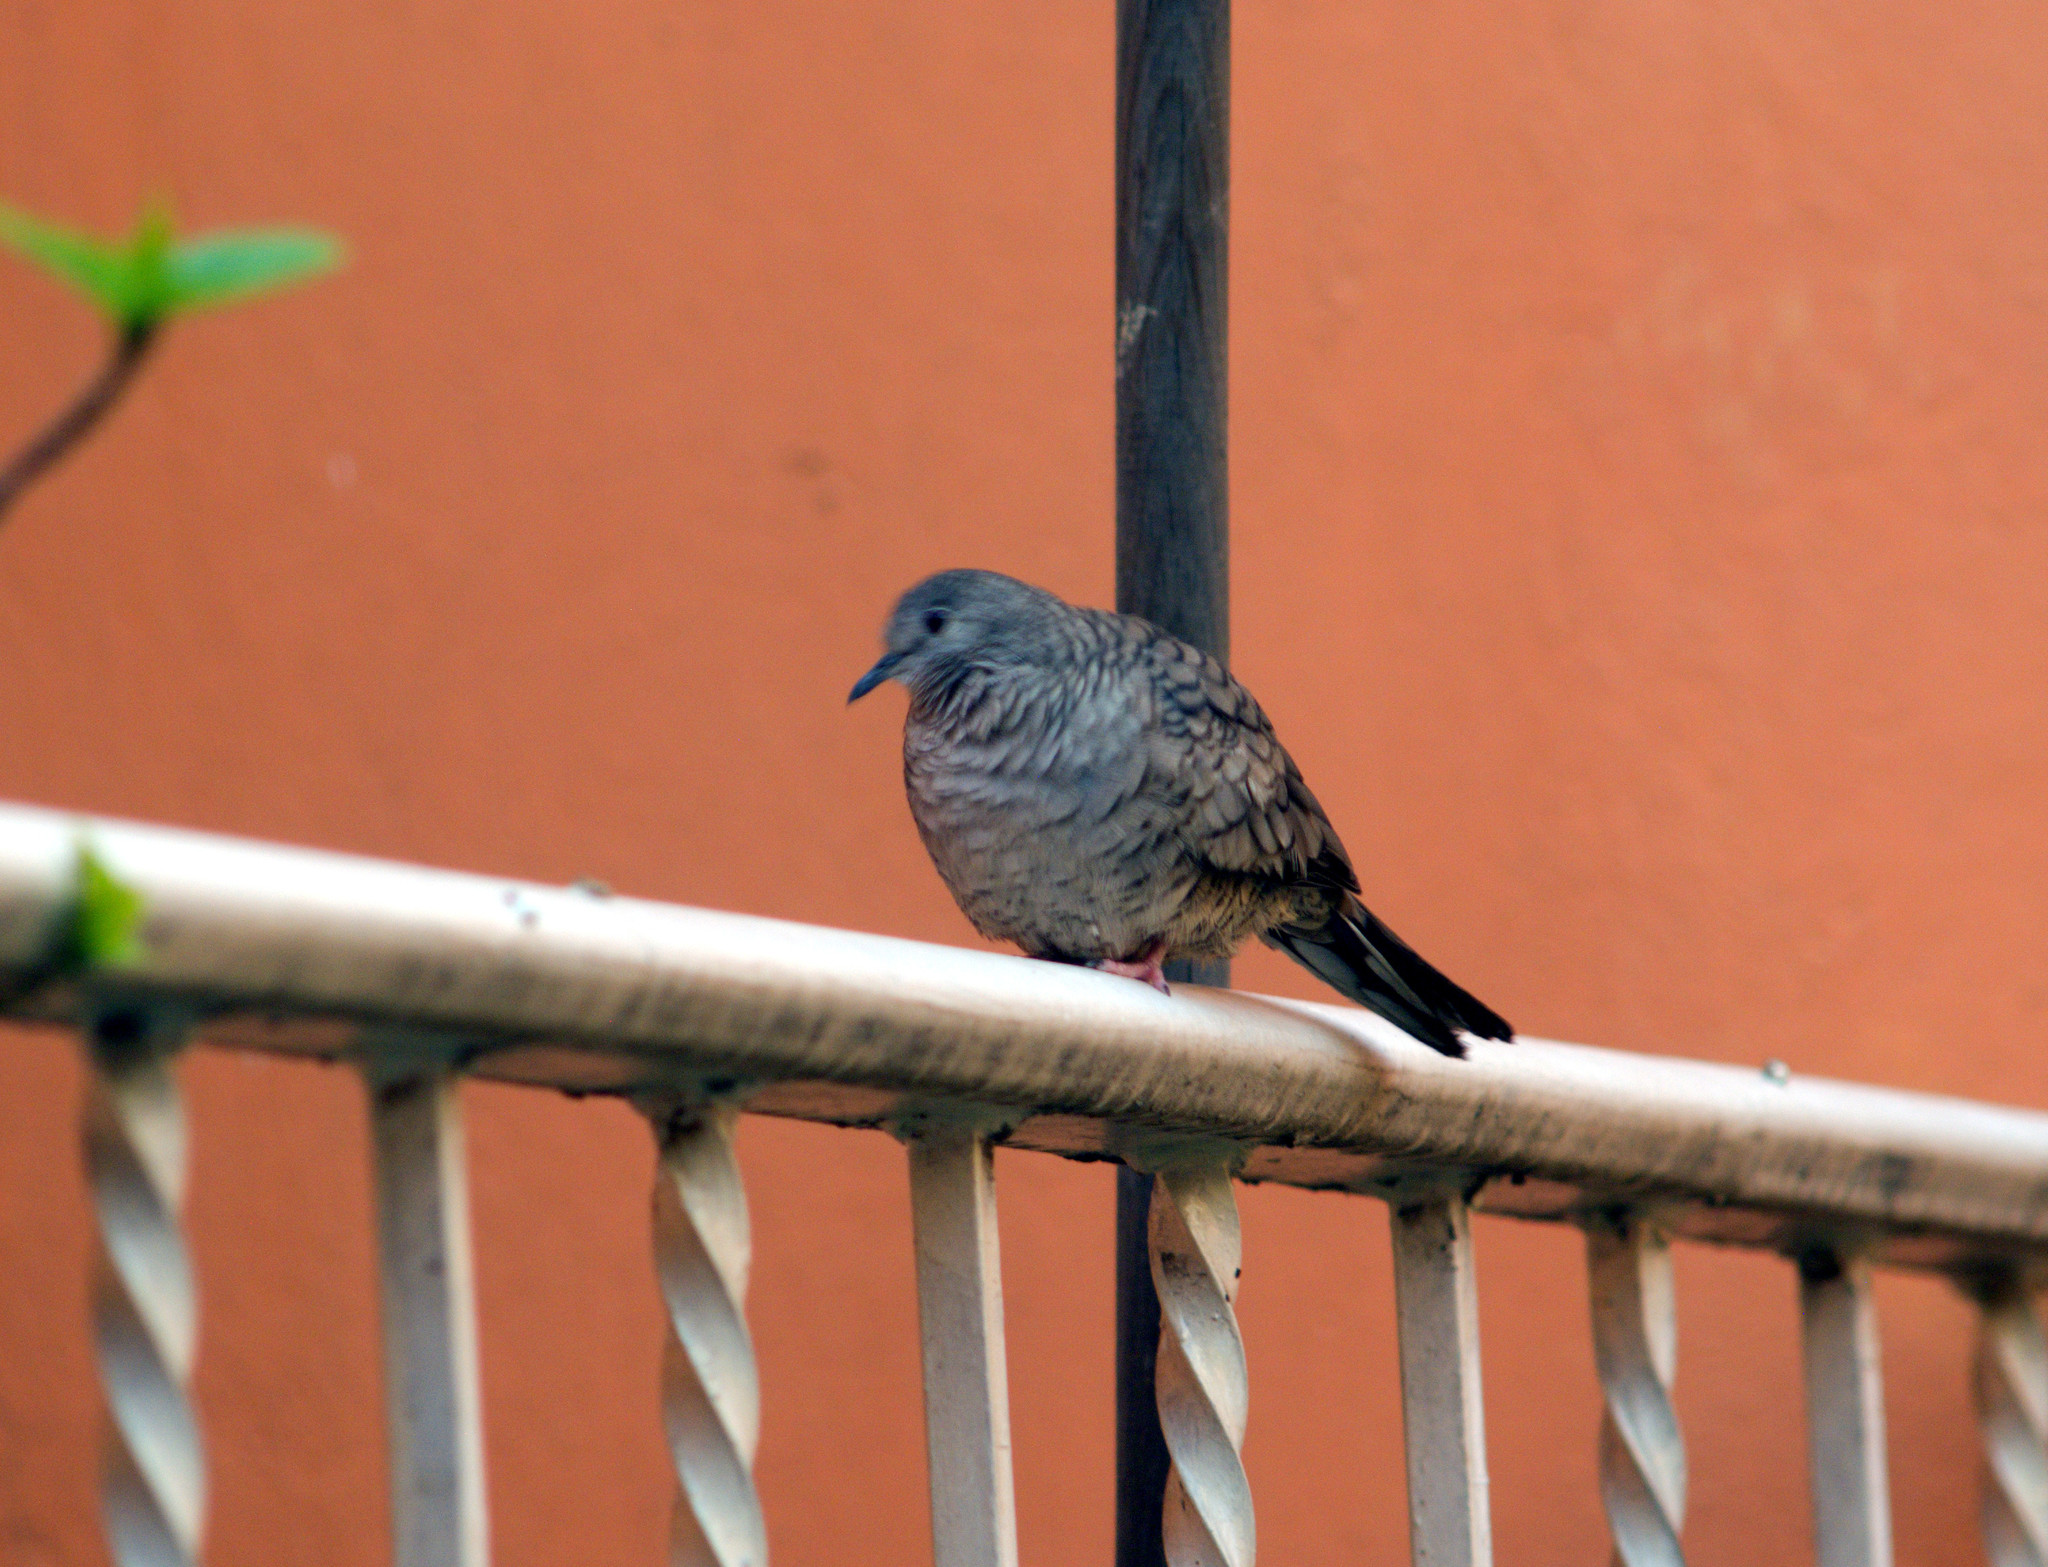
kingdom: Animalia
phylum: Chordata
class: Aves
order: Columbiformes
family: Columbidae
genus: Columbina
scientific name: Columbina inca
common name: Inca dove
